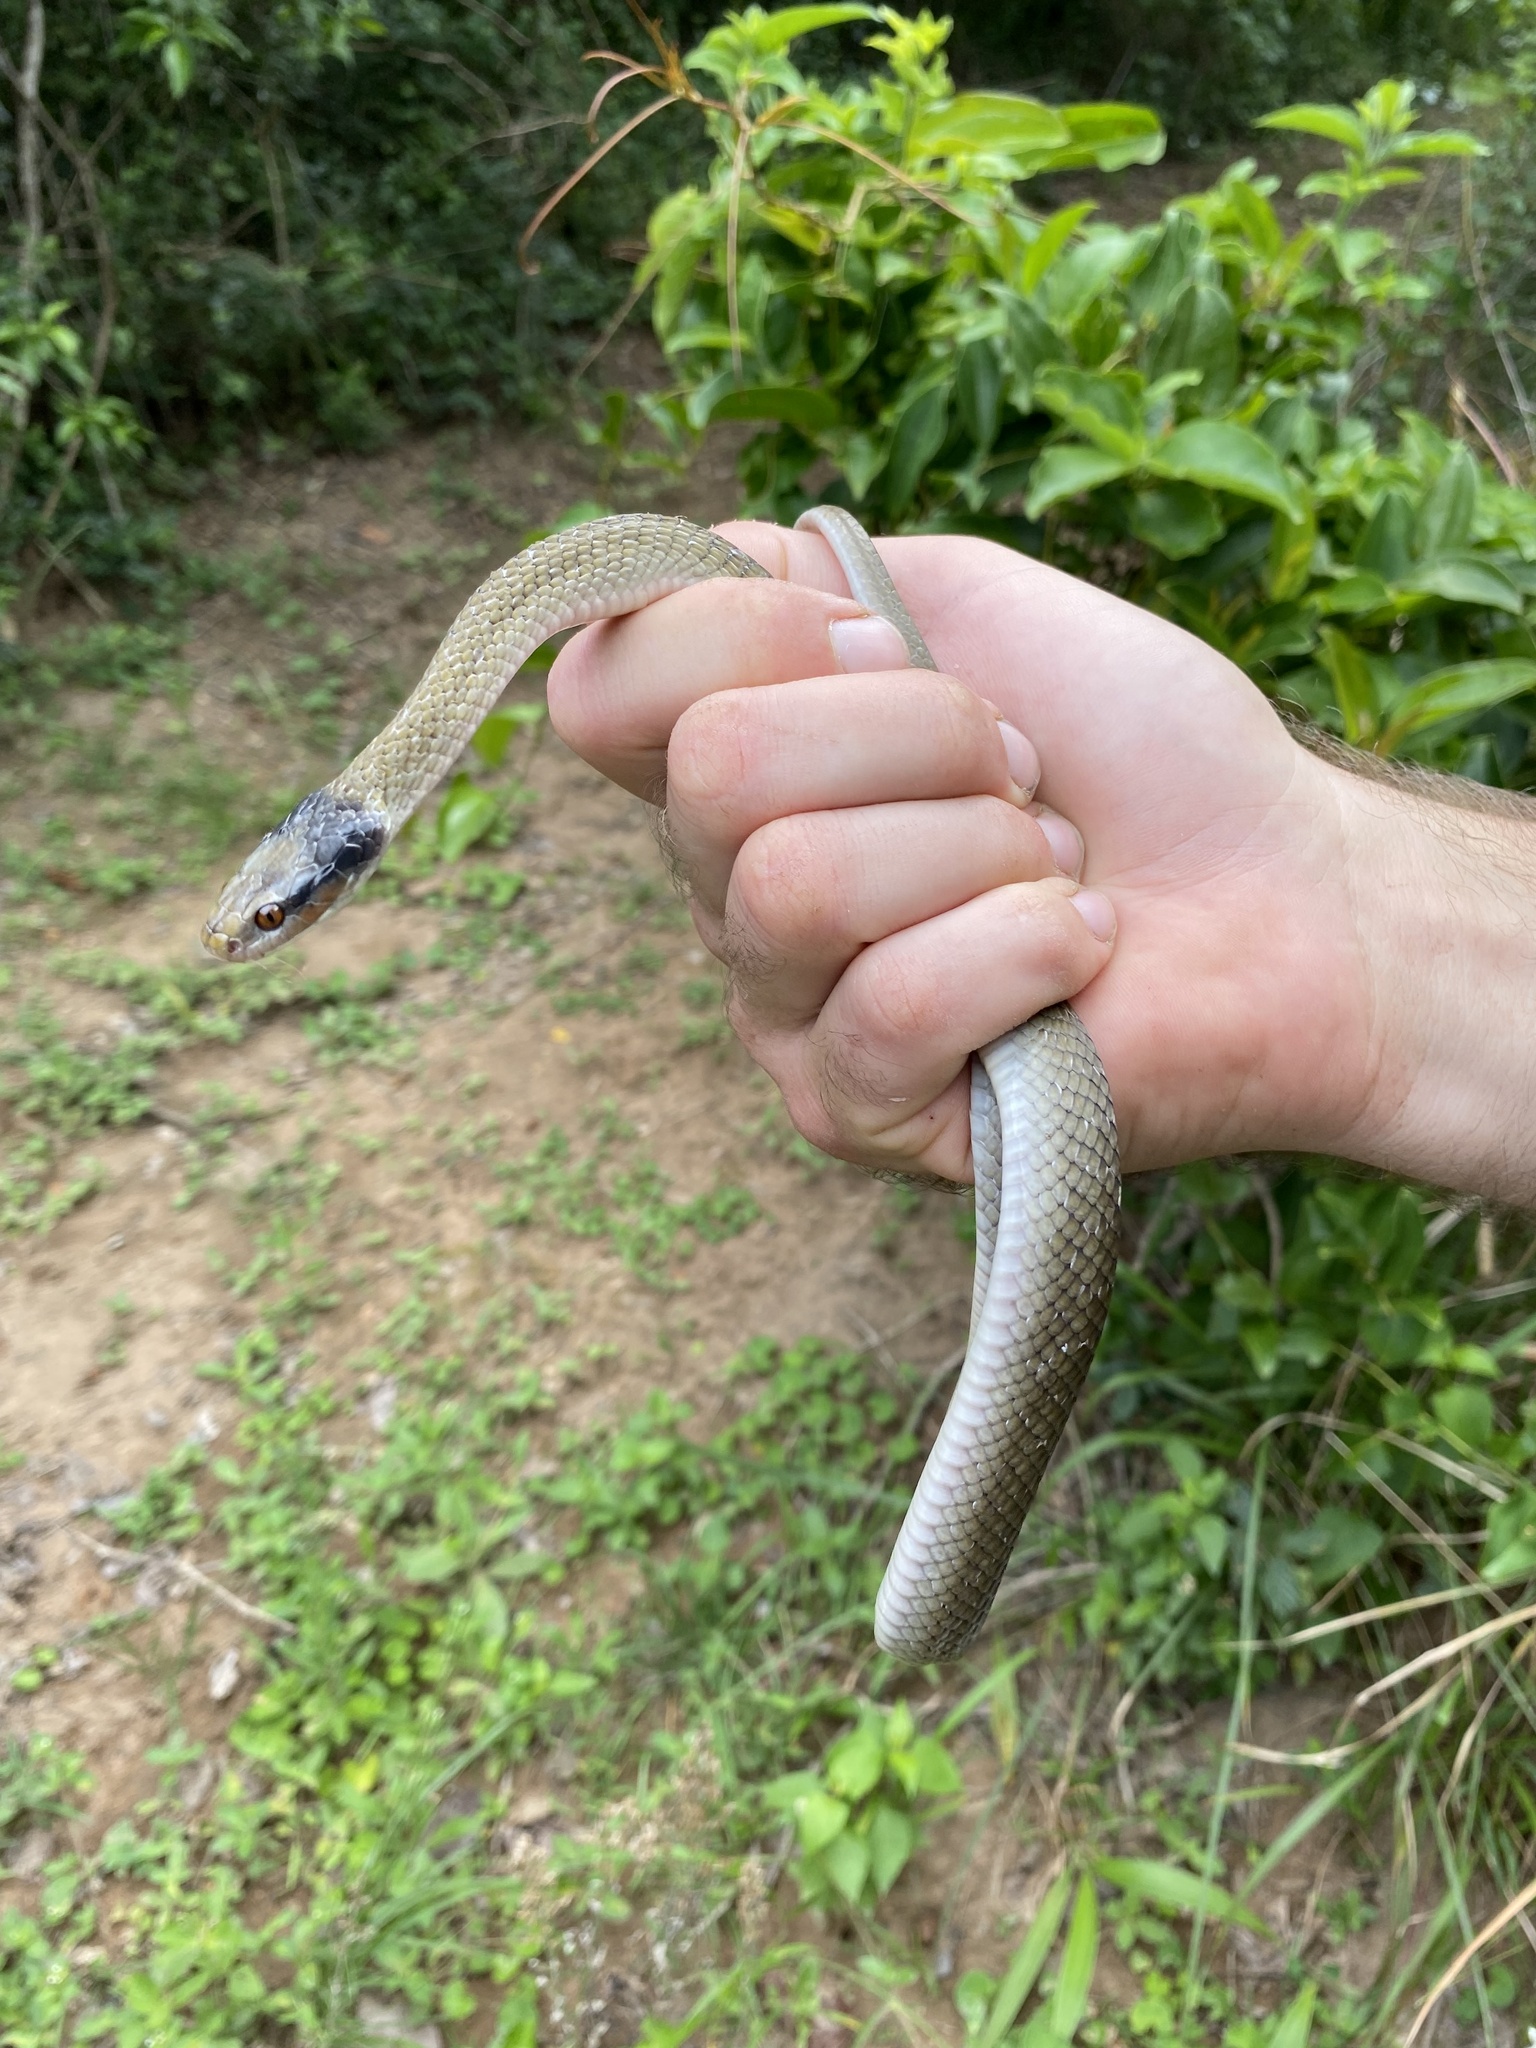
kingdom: Animalia
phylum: Chordata
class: Squamata
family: Colubridae
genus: Crotaphopeltis
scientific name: Crotaphopeltis hotamboeia
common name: Red-lipped snake
